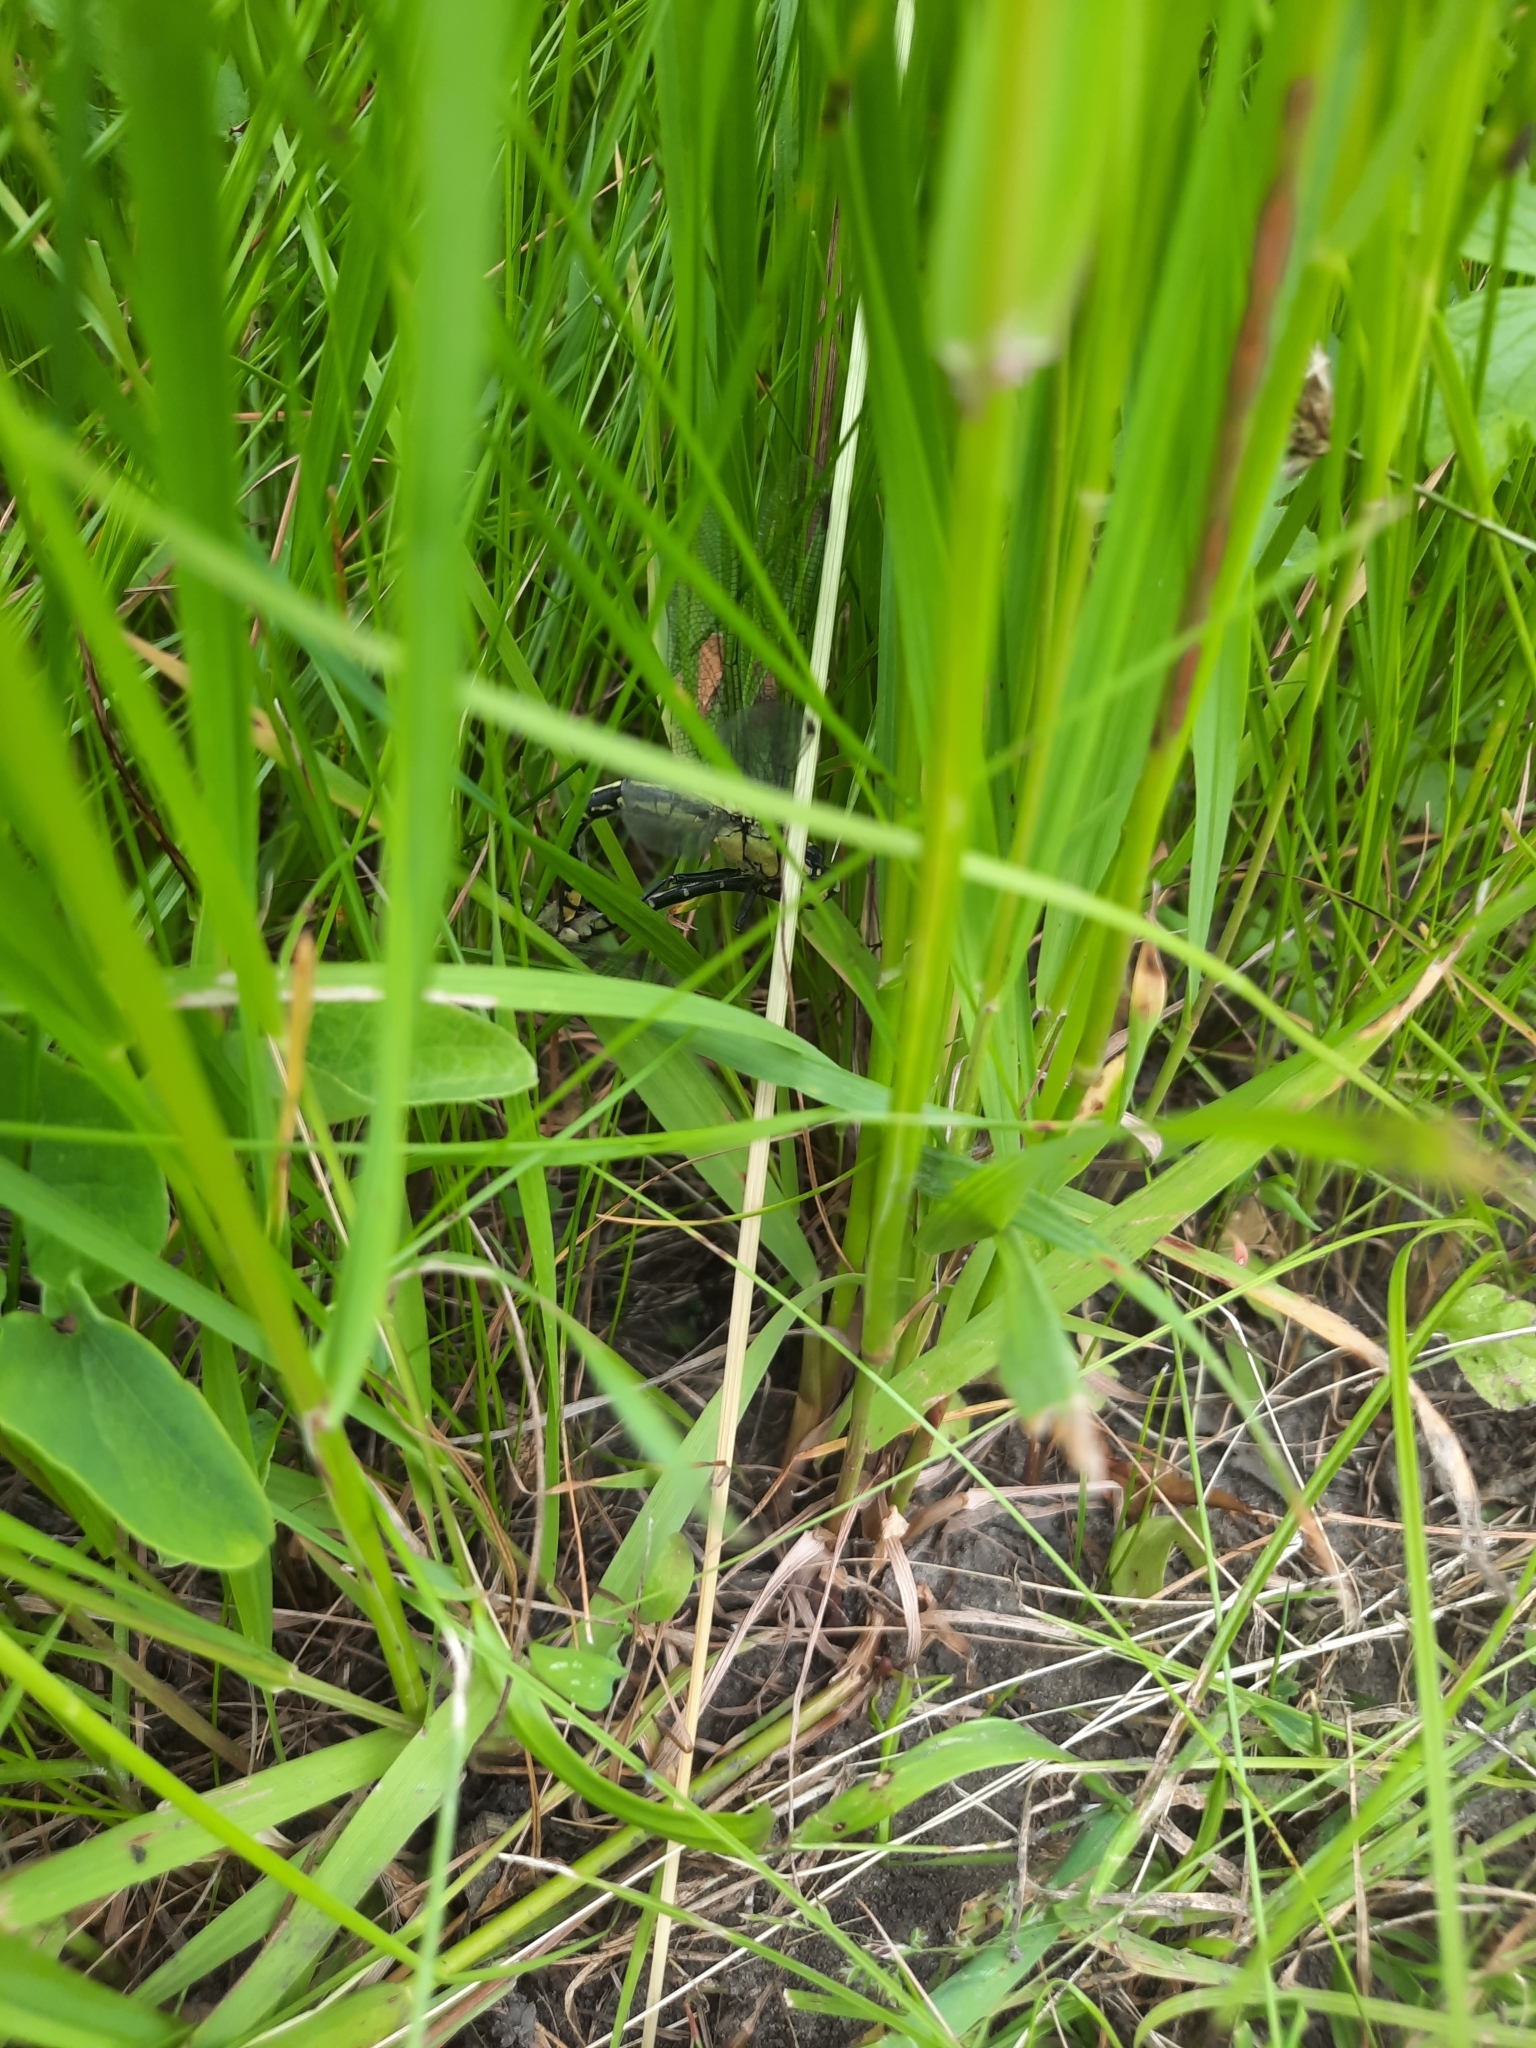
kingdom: Animalia
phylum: Arthropoda
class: Insecta
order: Odonata
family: Gomphidae
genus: Gomphus
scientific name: Gomphus vulgatissimus
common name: Club-tailed dragonfly
